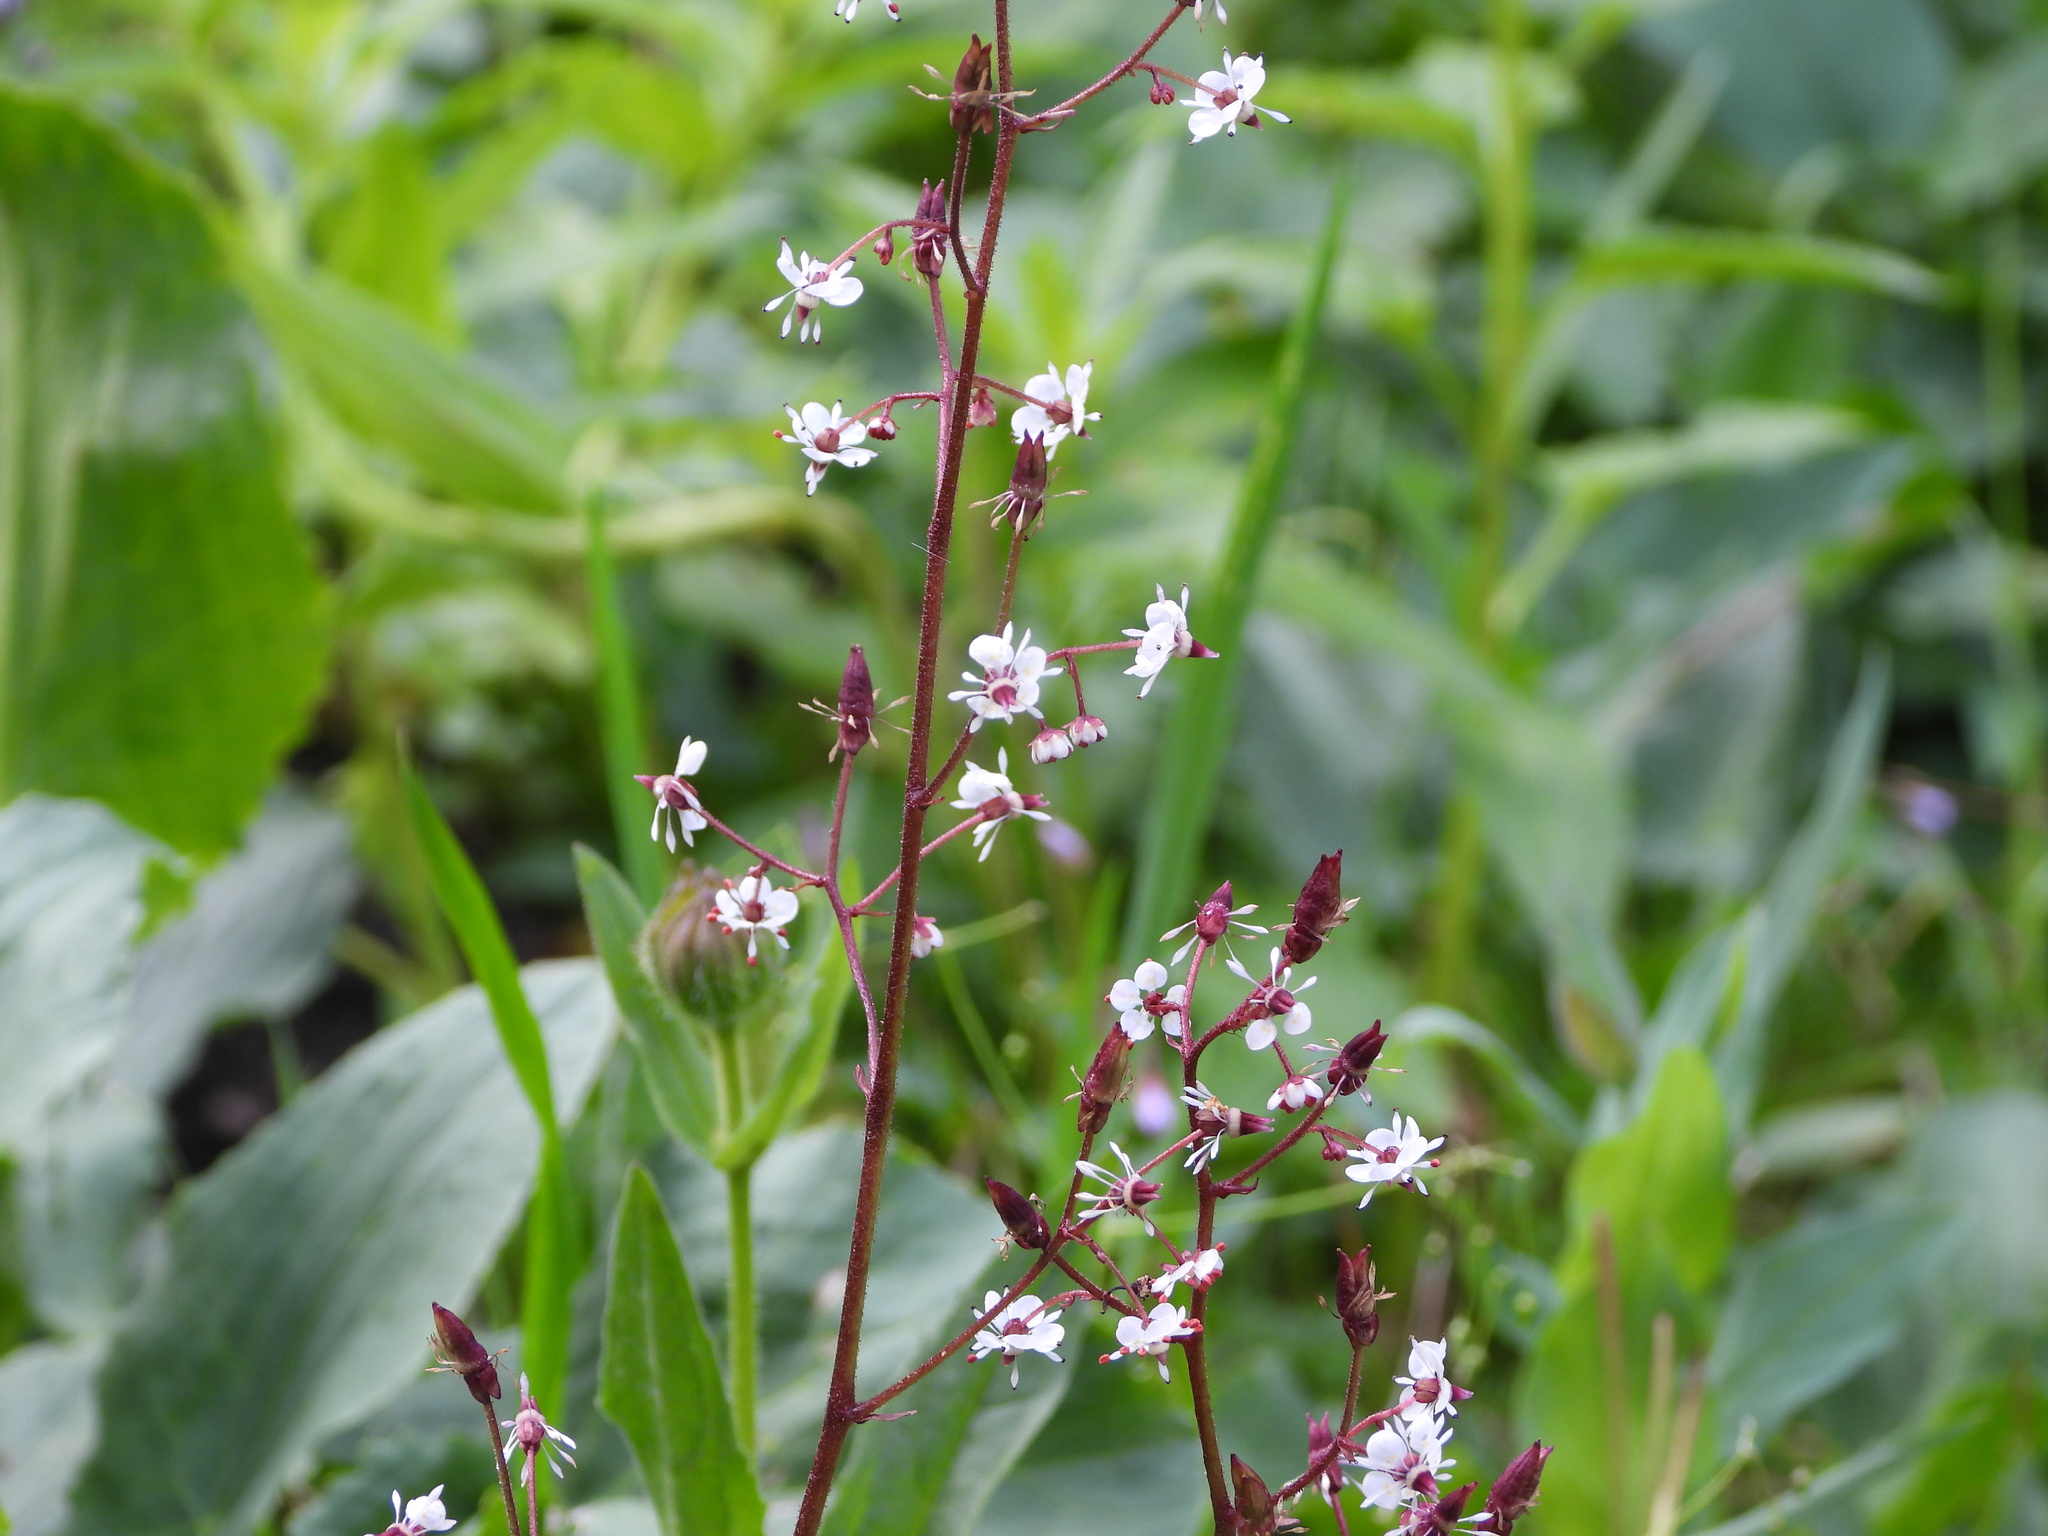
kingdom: Plantae
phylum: Tracheophyta
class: Magnoliopsida
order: Saxifragales
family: Saxifragaceae
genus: Micranthes
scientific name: Micranthes odontoloma
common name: Brook saxifrage
